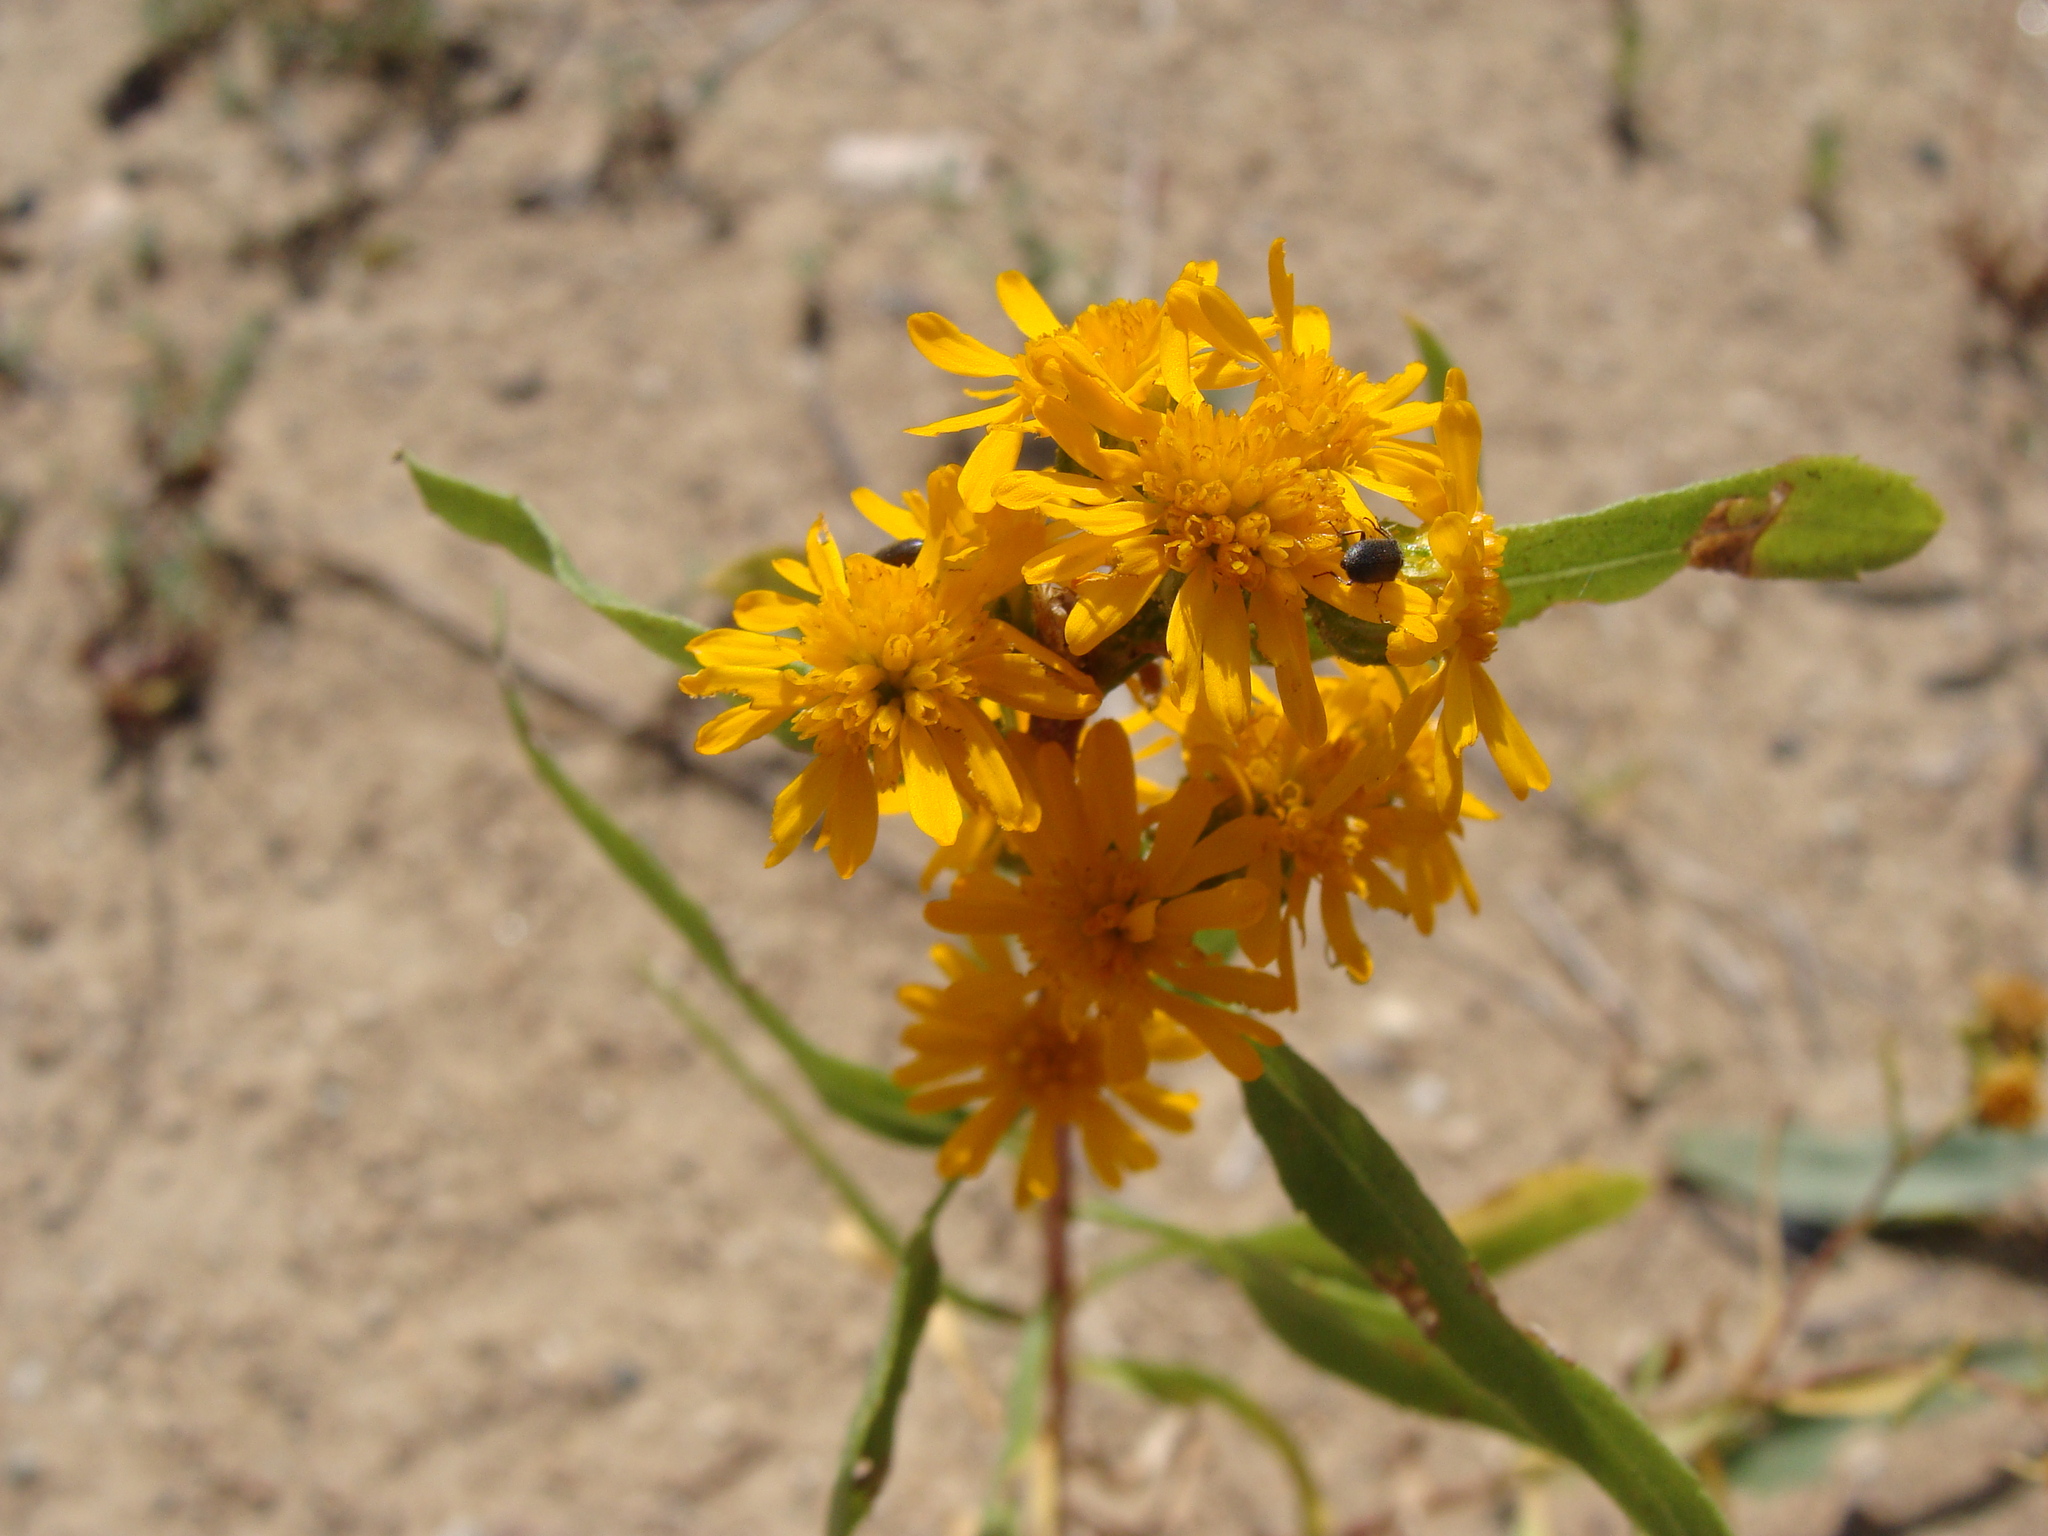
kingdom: Plantae
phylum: Tracheophyta
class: Magnoliopsida
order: Asterales
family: Asteraceae
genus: Xanthocephalum
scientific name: Xanthocephalum gymnospermoides
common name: San pedro matchweed
